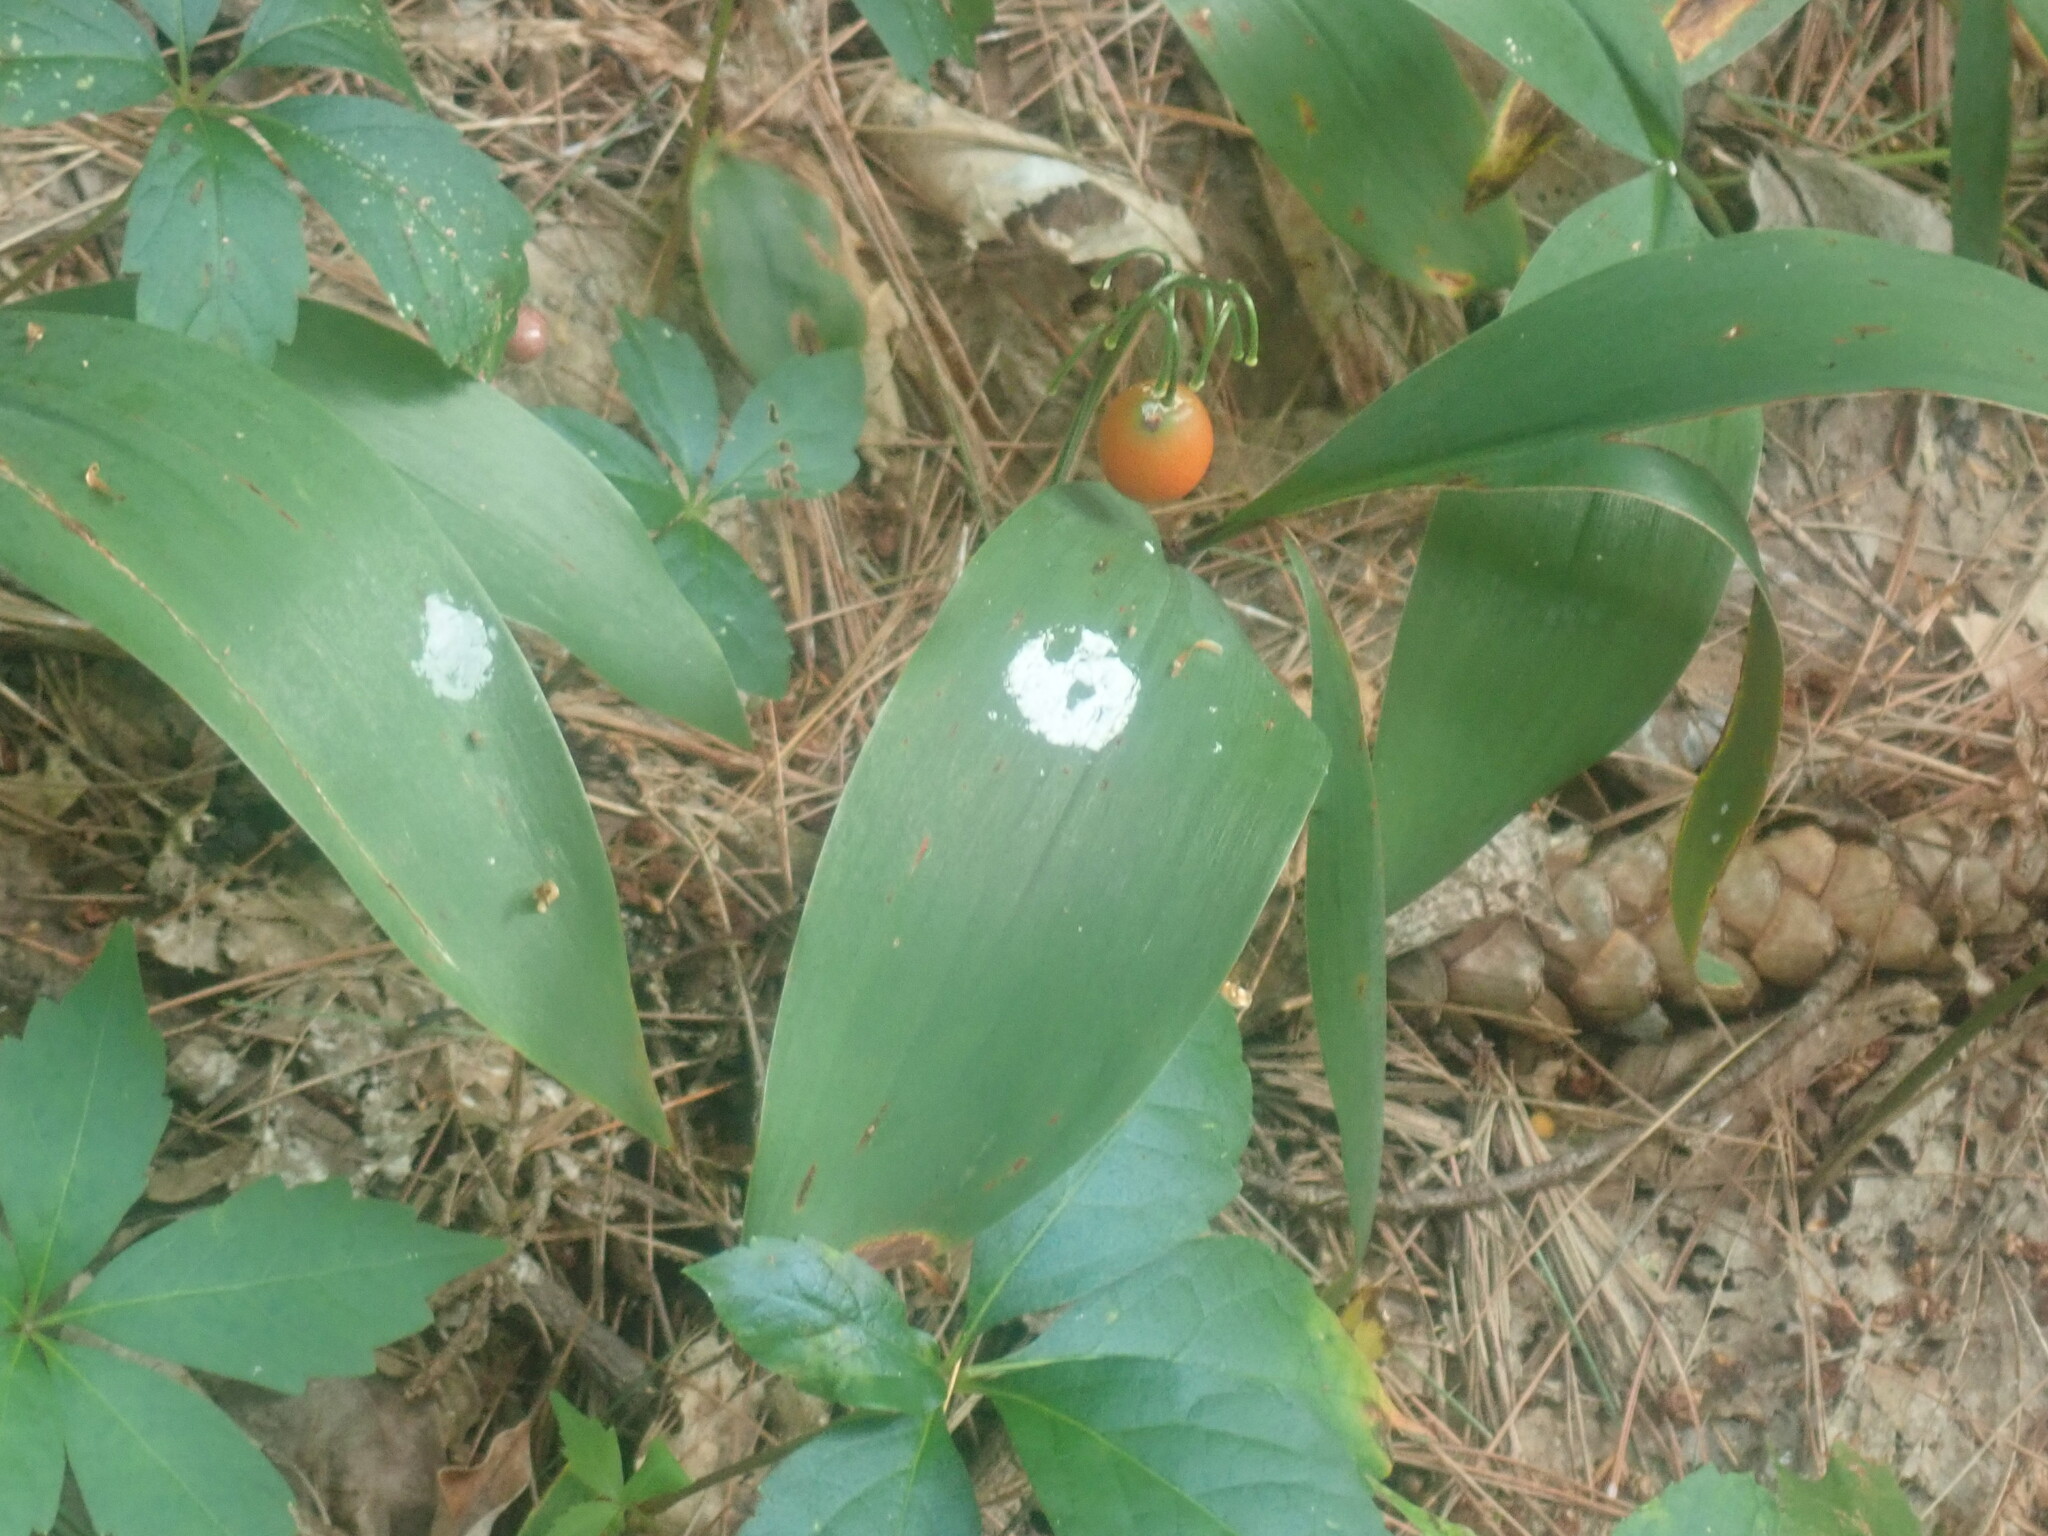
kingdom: Plantae
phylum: Tracheophyta
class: Liliopsida
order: Asparagales
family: Asparagaceae
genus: Convallaria
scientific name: Convallaria majalis
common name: Lily-of-the-valley
